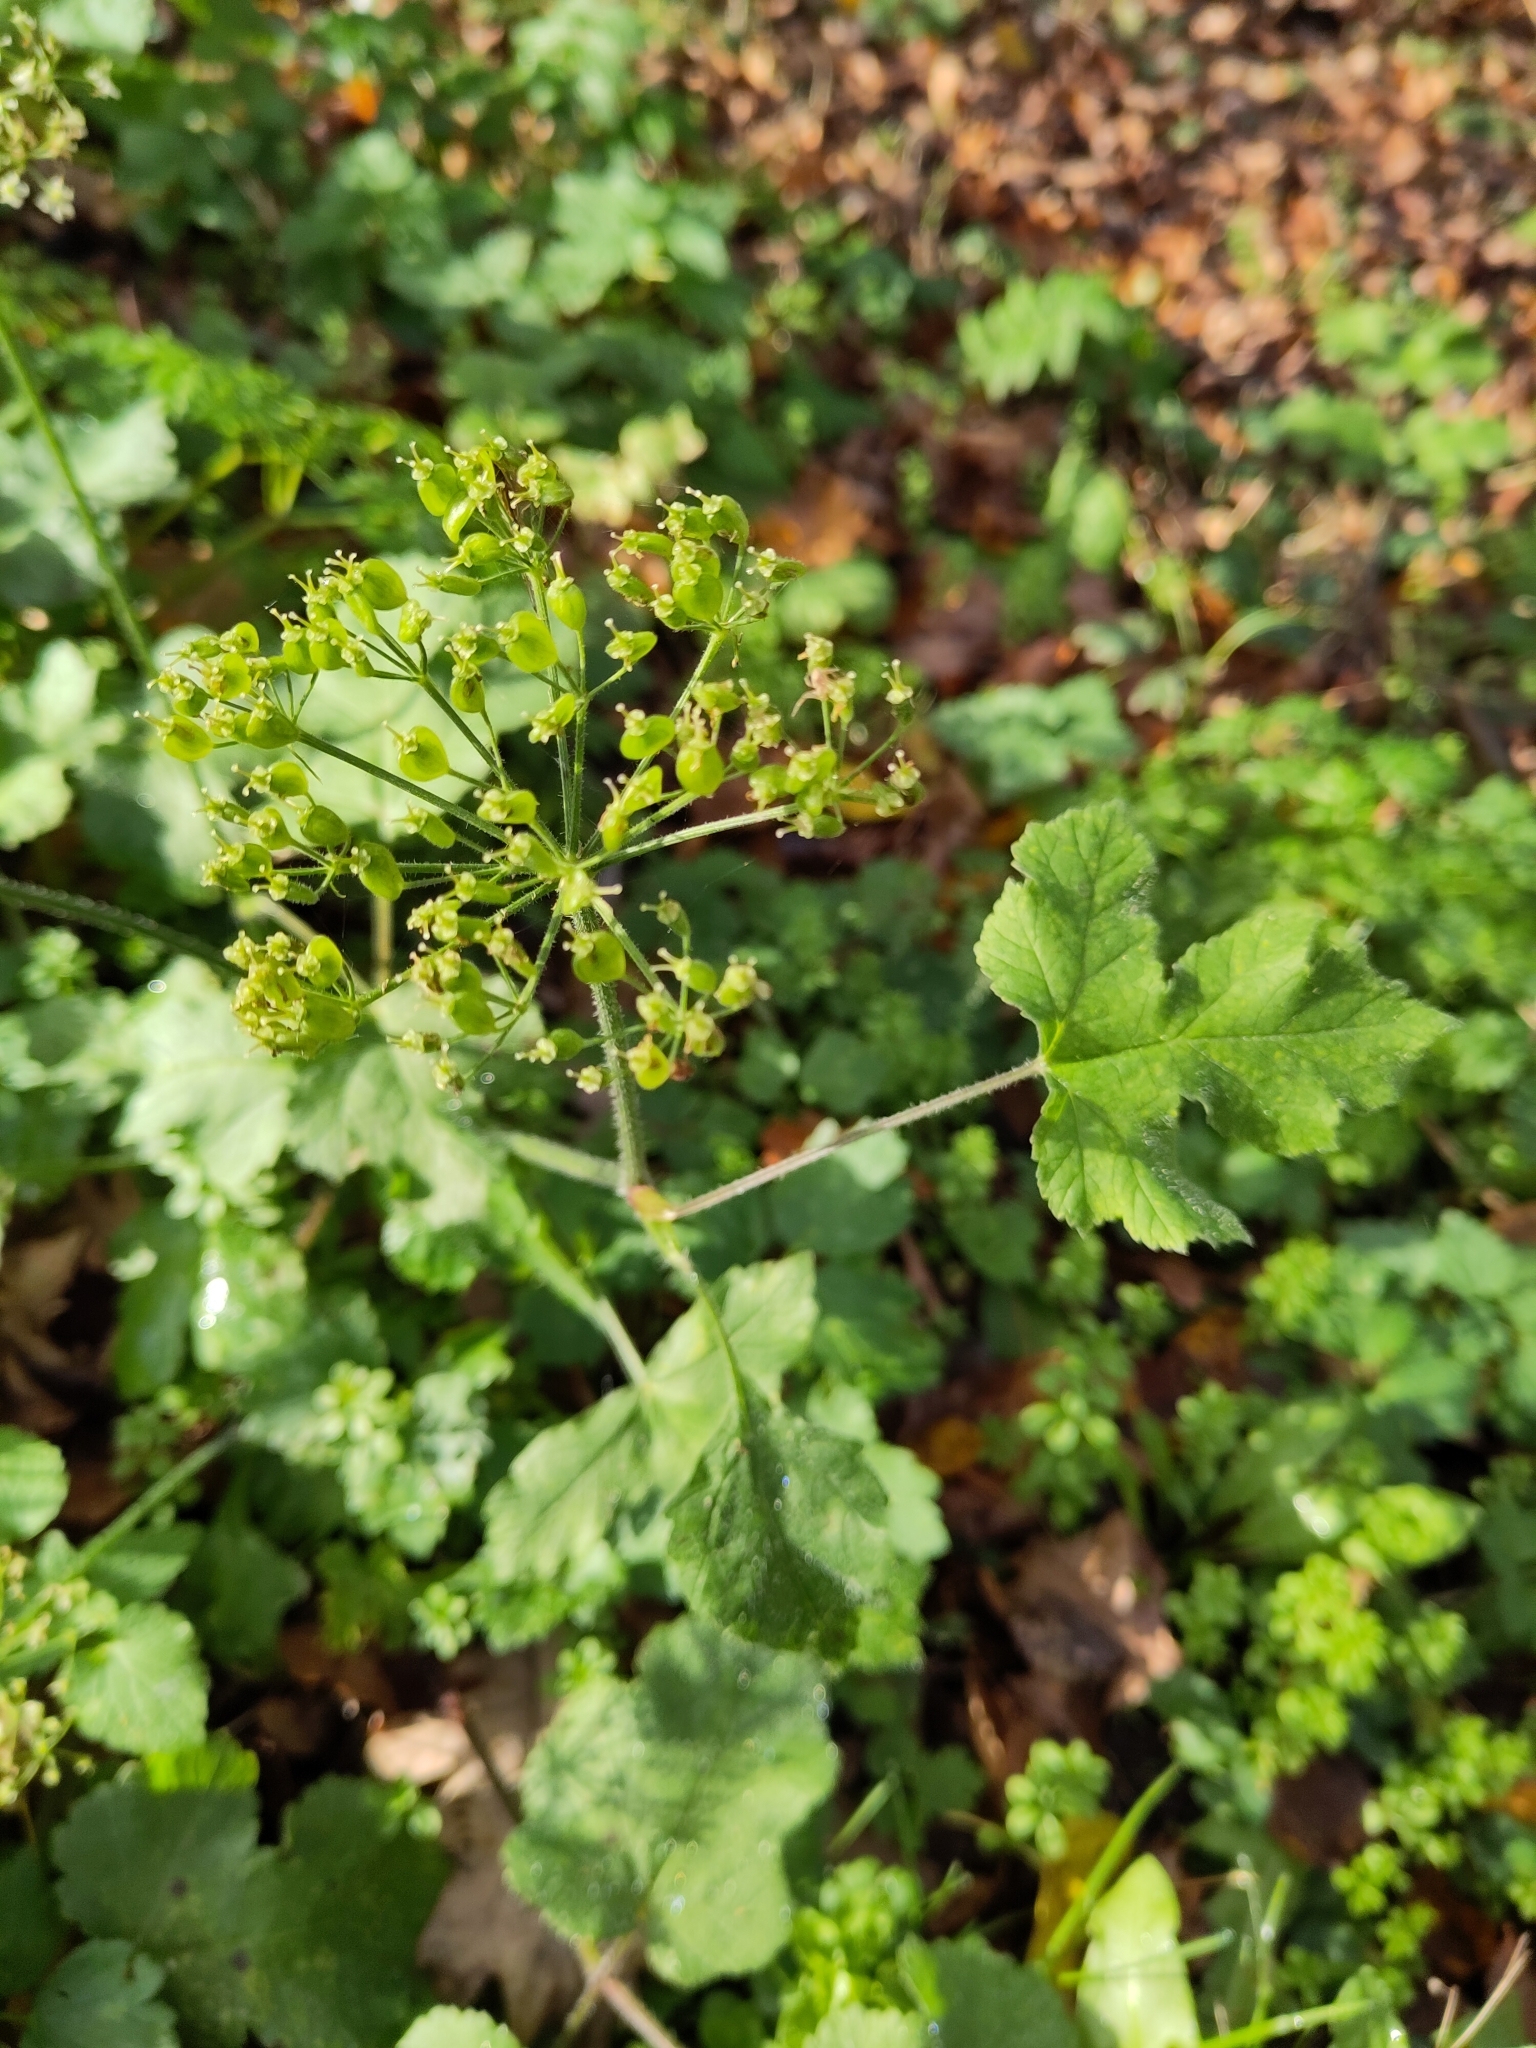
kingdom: Plantae
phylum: Tracheophyta
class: Magnoliopsida
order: Apiales
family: Apiaceae
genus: Heracleum
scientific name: Heracleum sphondylium
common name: Hogweed
